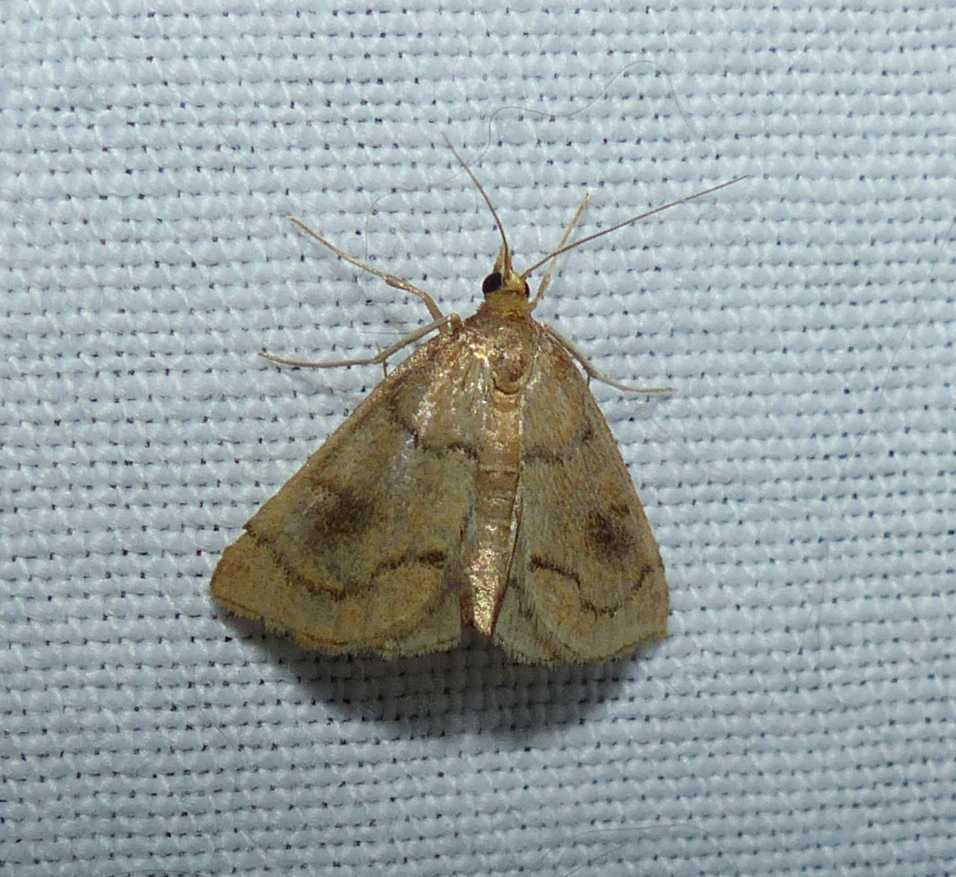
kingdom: Animalia
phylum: Arthropoda
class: Insecta
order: Lepidoptera
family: Crambidae
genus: Fumibotys
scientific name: Fumibotys fumalis
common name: Mint root borer moth
